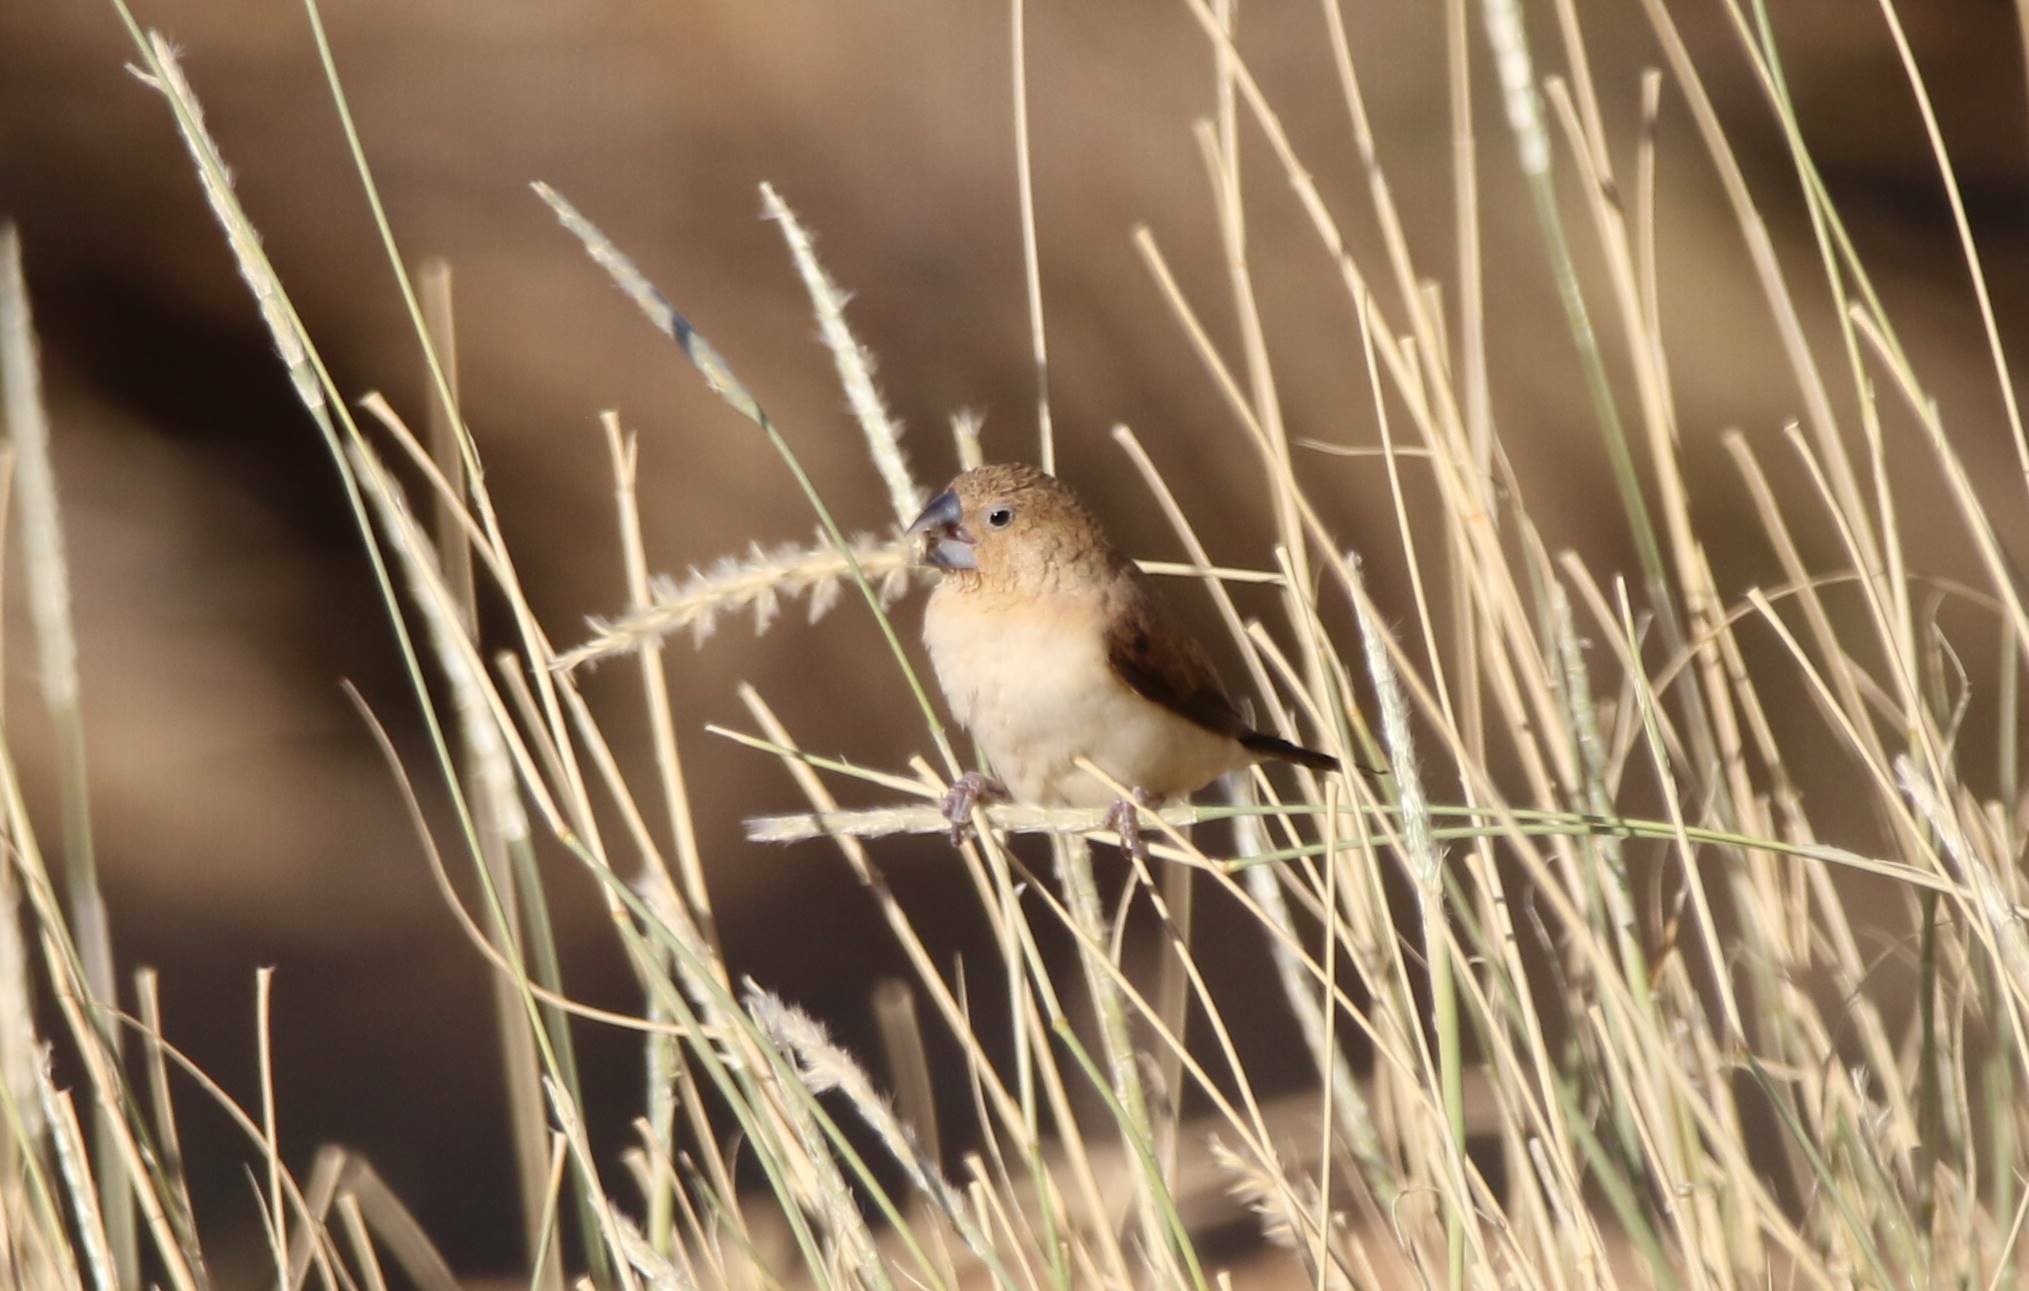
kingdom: Animalia
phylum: Chordata
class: Aves
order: Passeriformes
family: Estrildidae
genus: Euodice
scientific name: Euodice cantans
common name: African silverbill
